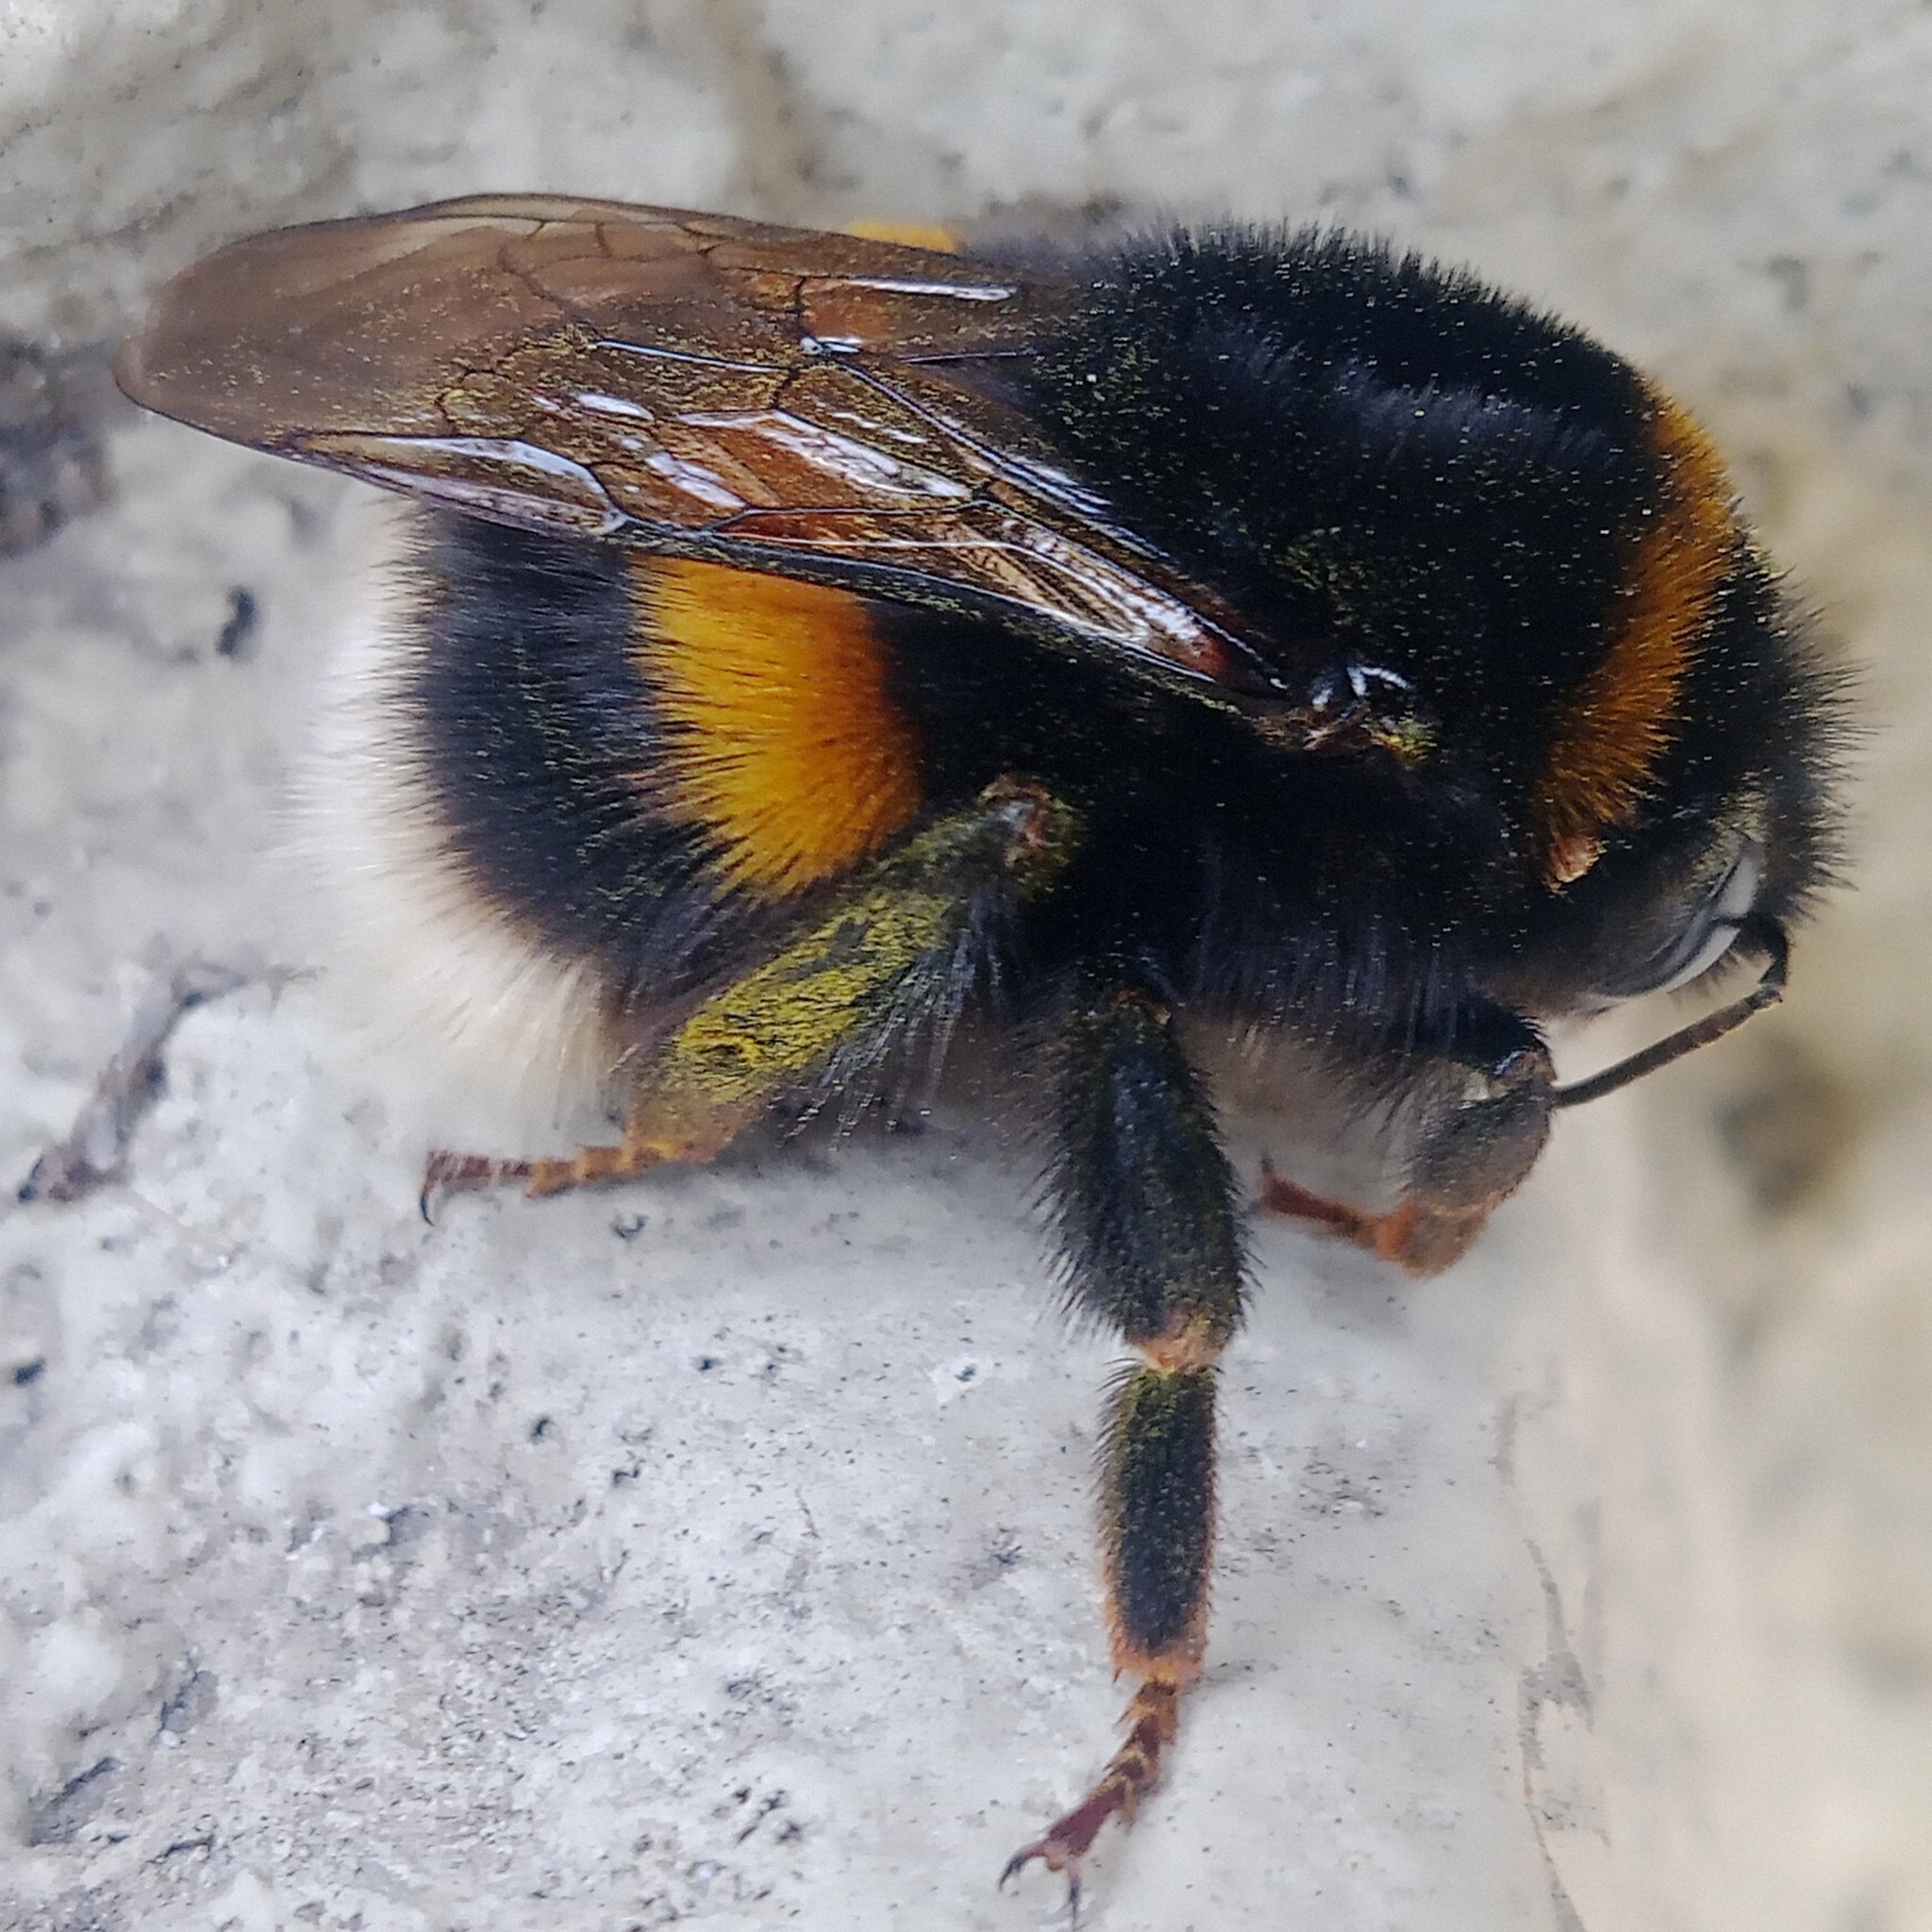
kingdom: Animalia
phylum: Arthropoda
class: Insecta
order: Hymenoptera
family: Apidae
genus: Bombus
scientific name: Bombus
